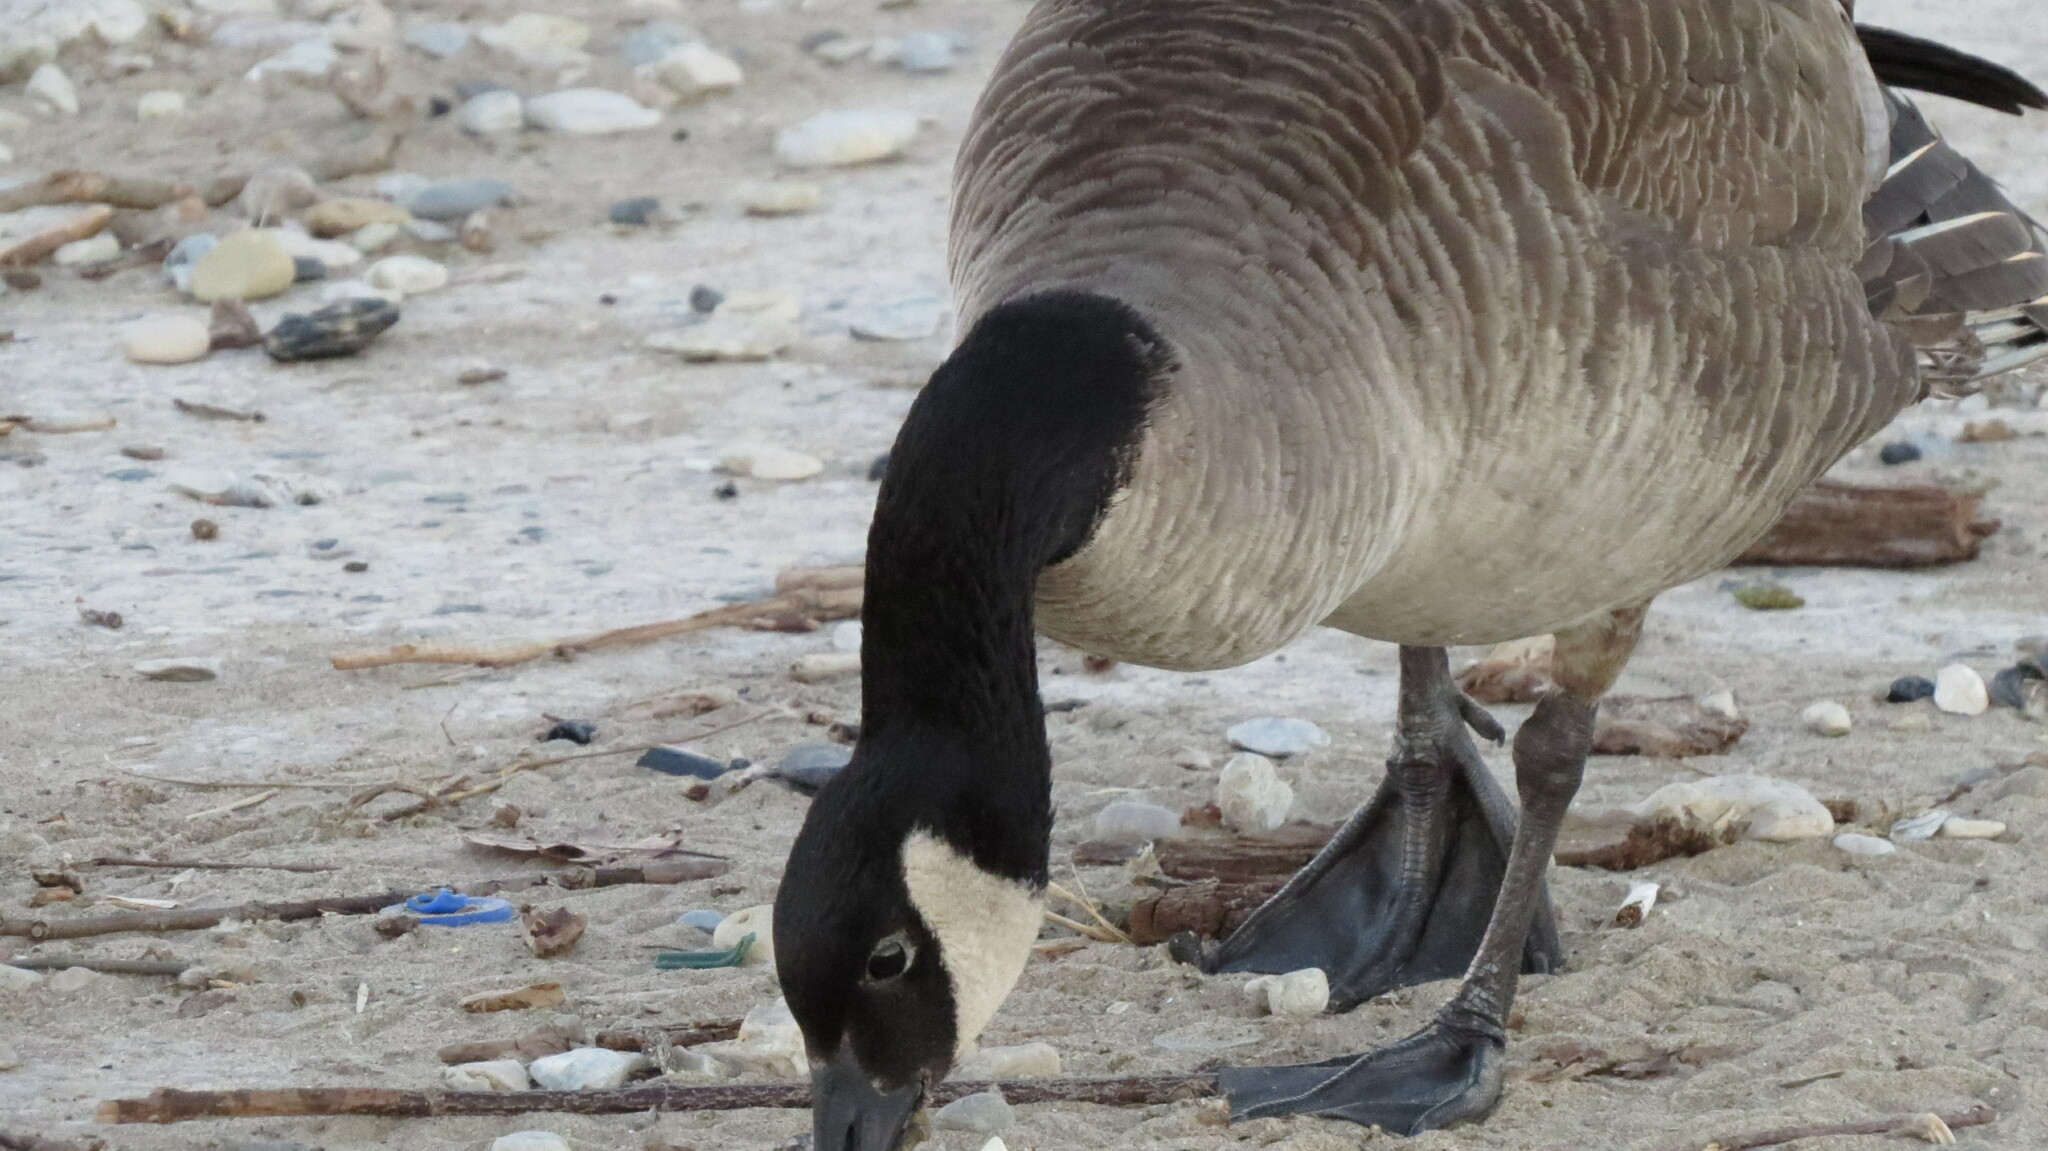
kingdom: Animalia
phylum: Chordata
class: Aves
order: Anseriformes
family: Anatidae
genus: Branta
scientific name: Branta canadensis
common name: Canada goose
